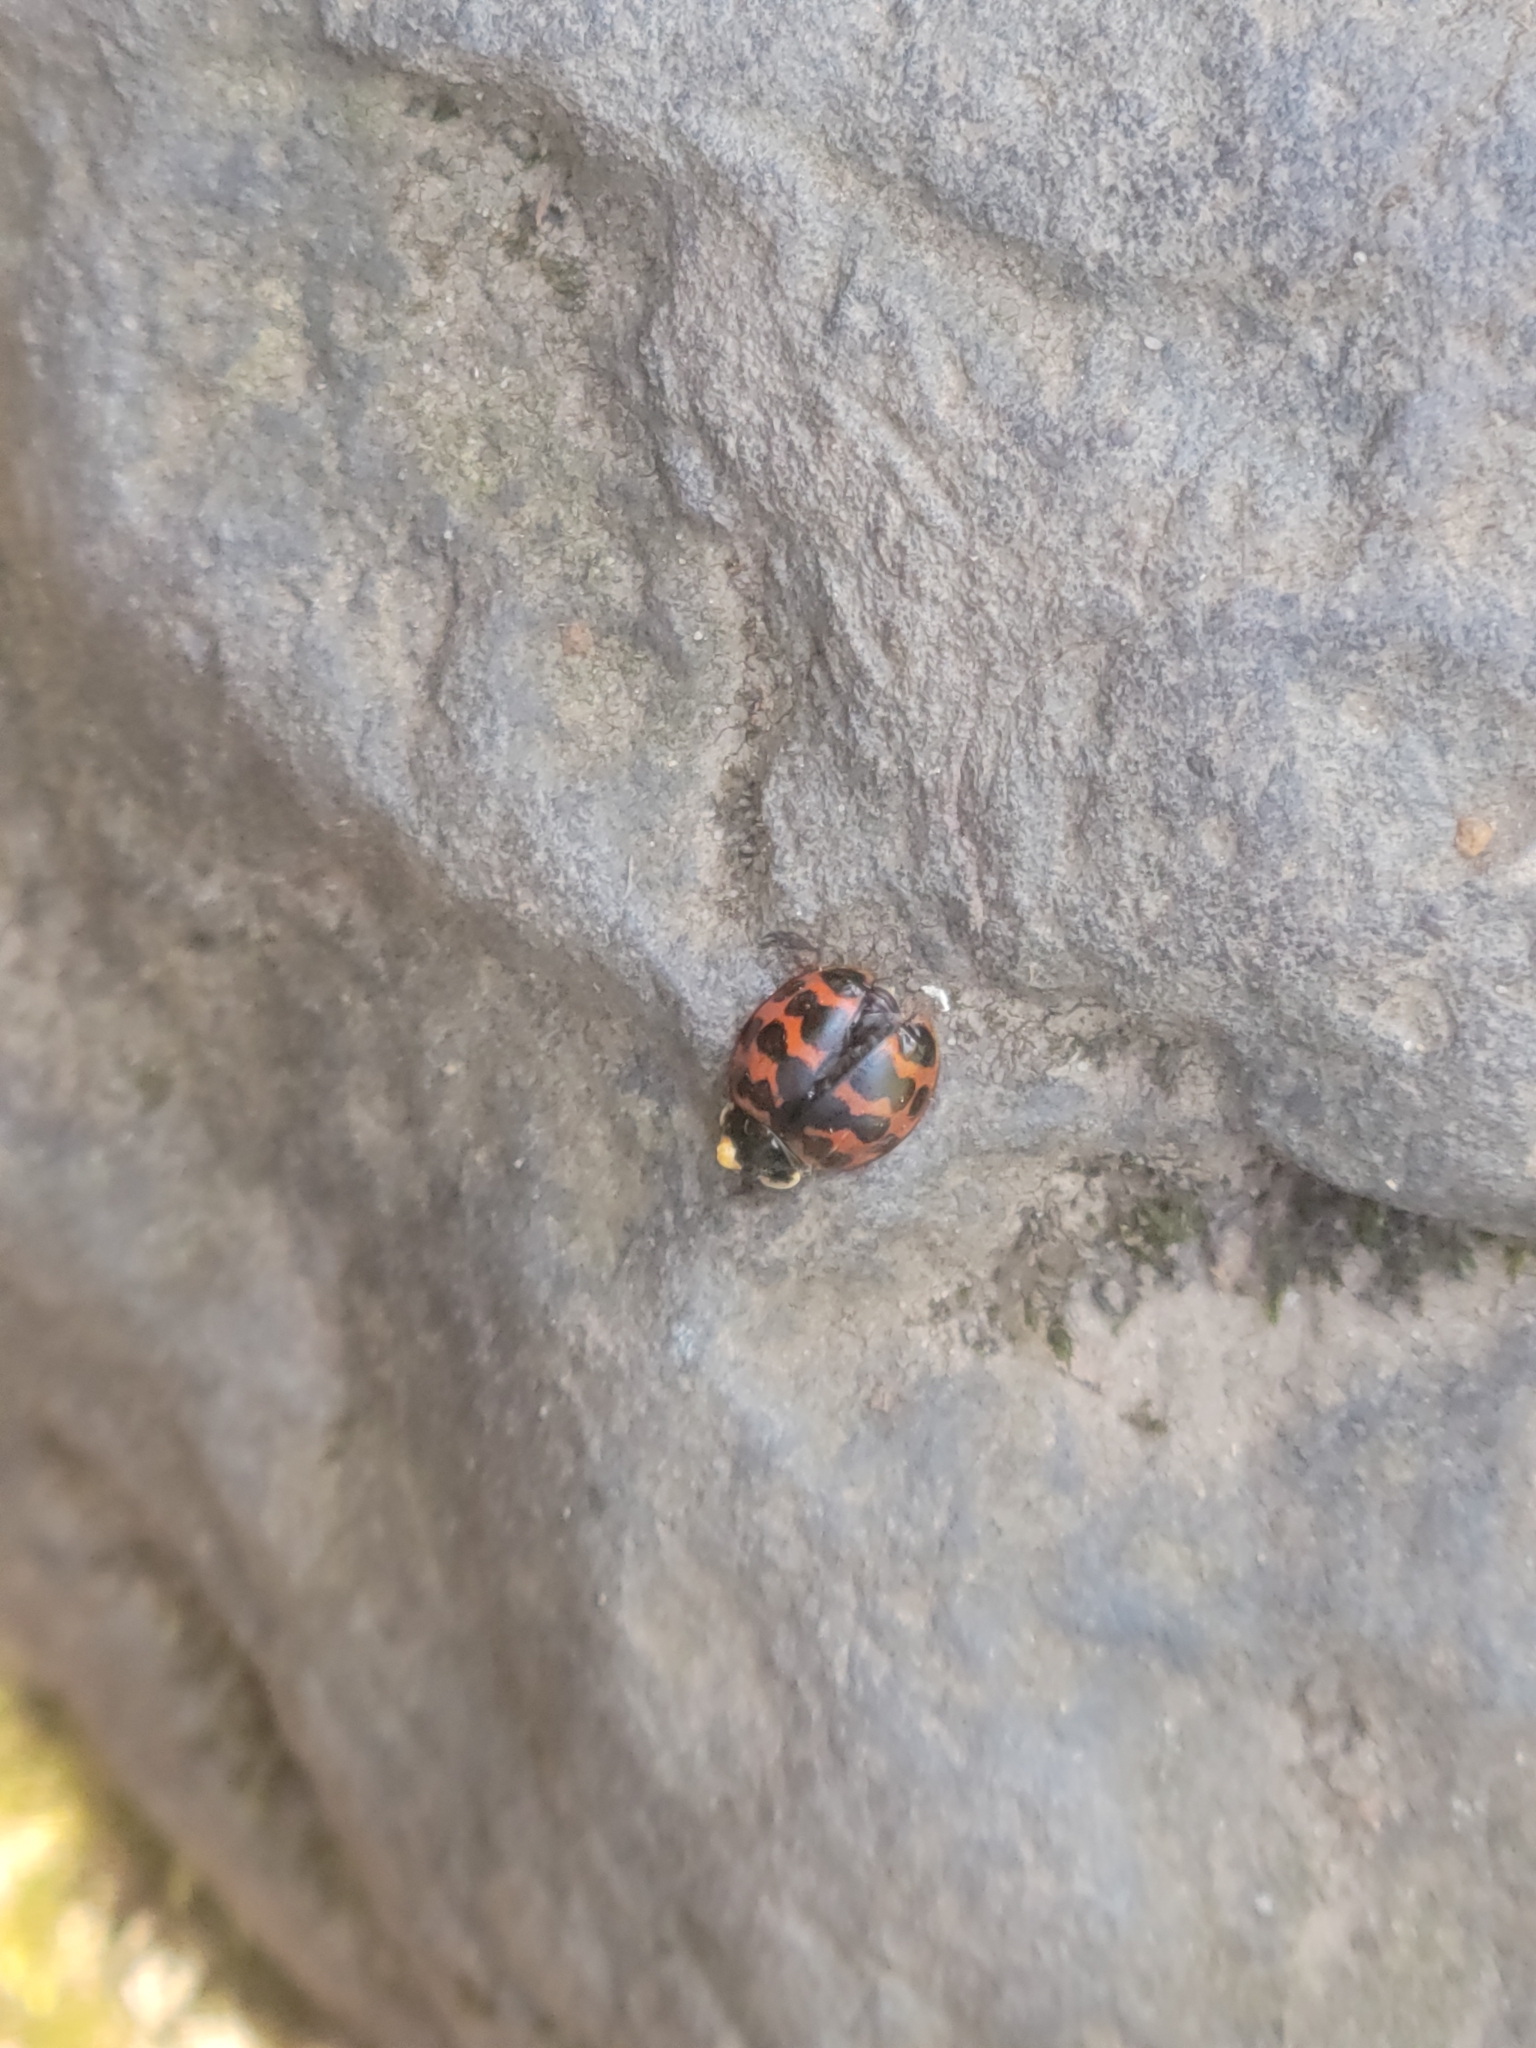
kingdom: Animalia
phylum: Arthropoda
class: Insecta
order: Coleoptera
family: Coccinellidae
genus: Harmonia
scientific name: Harmonia axyridis
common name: Harlequin ladybird
